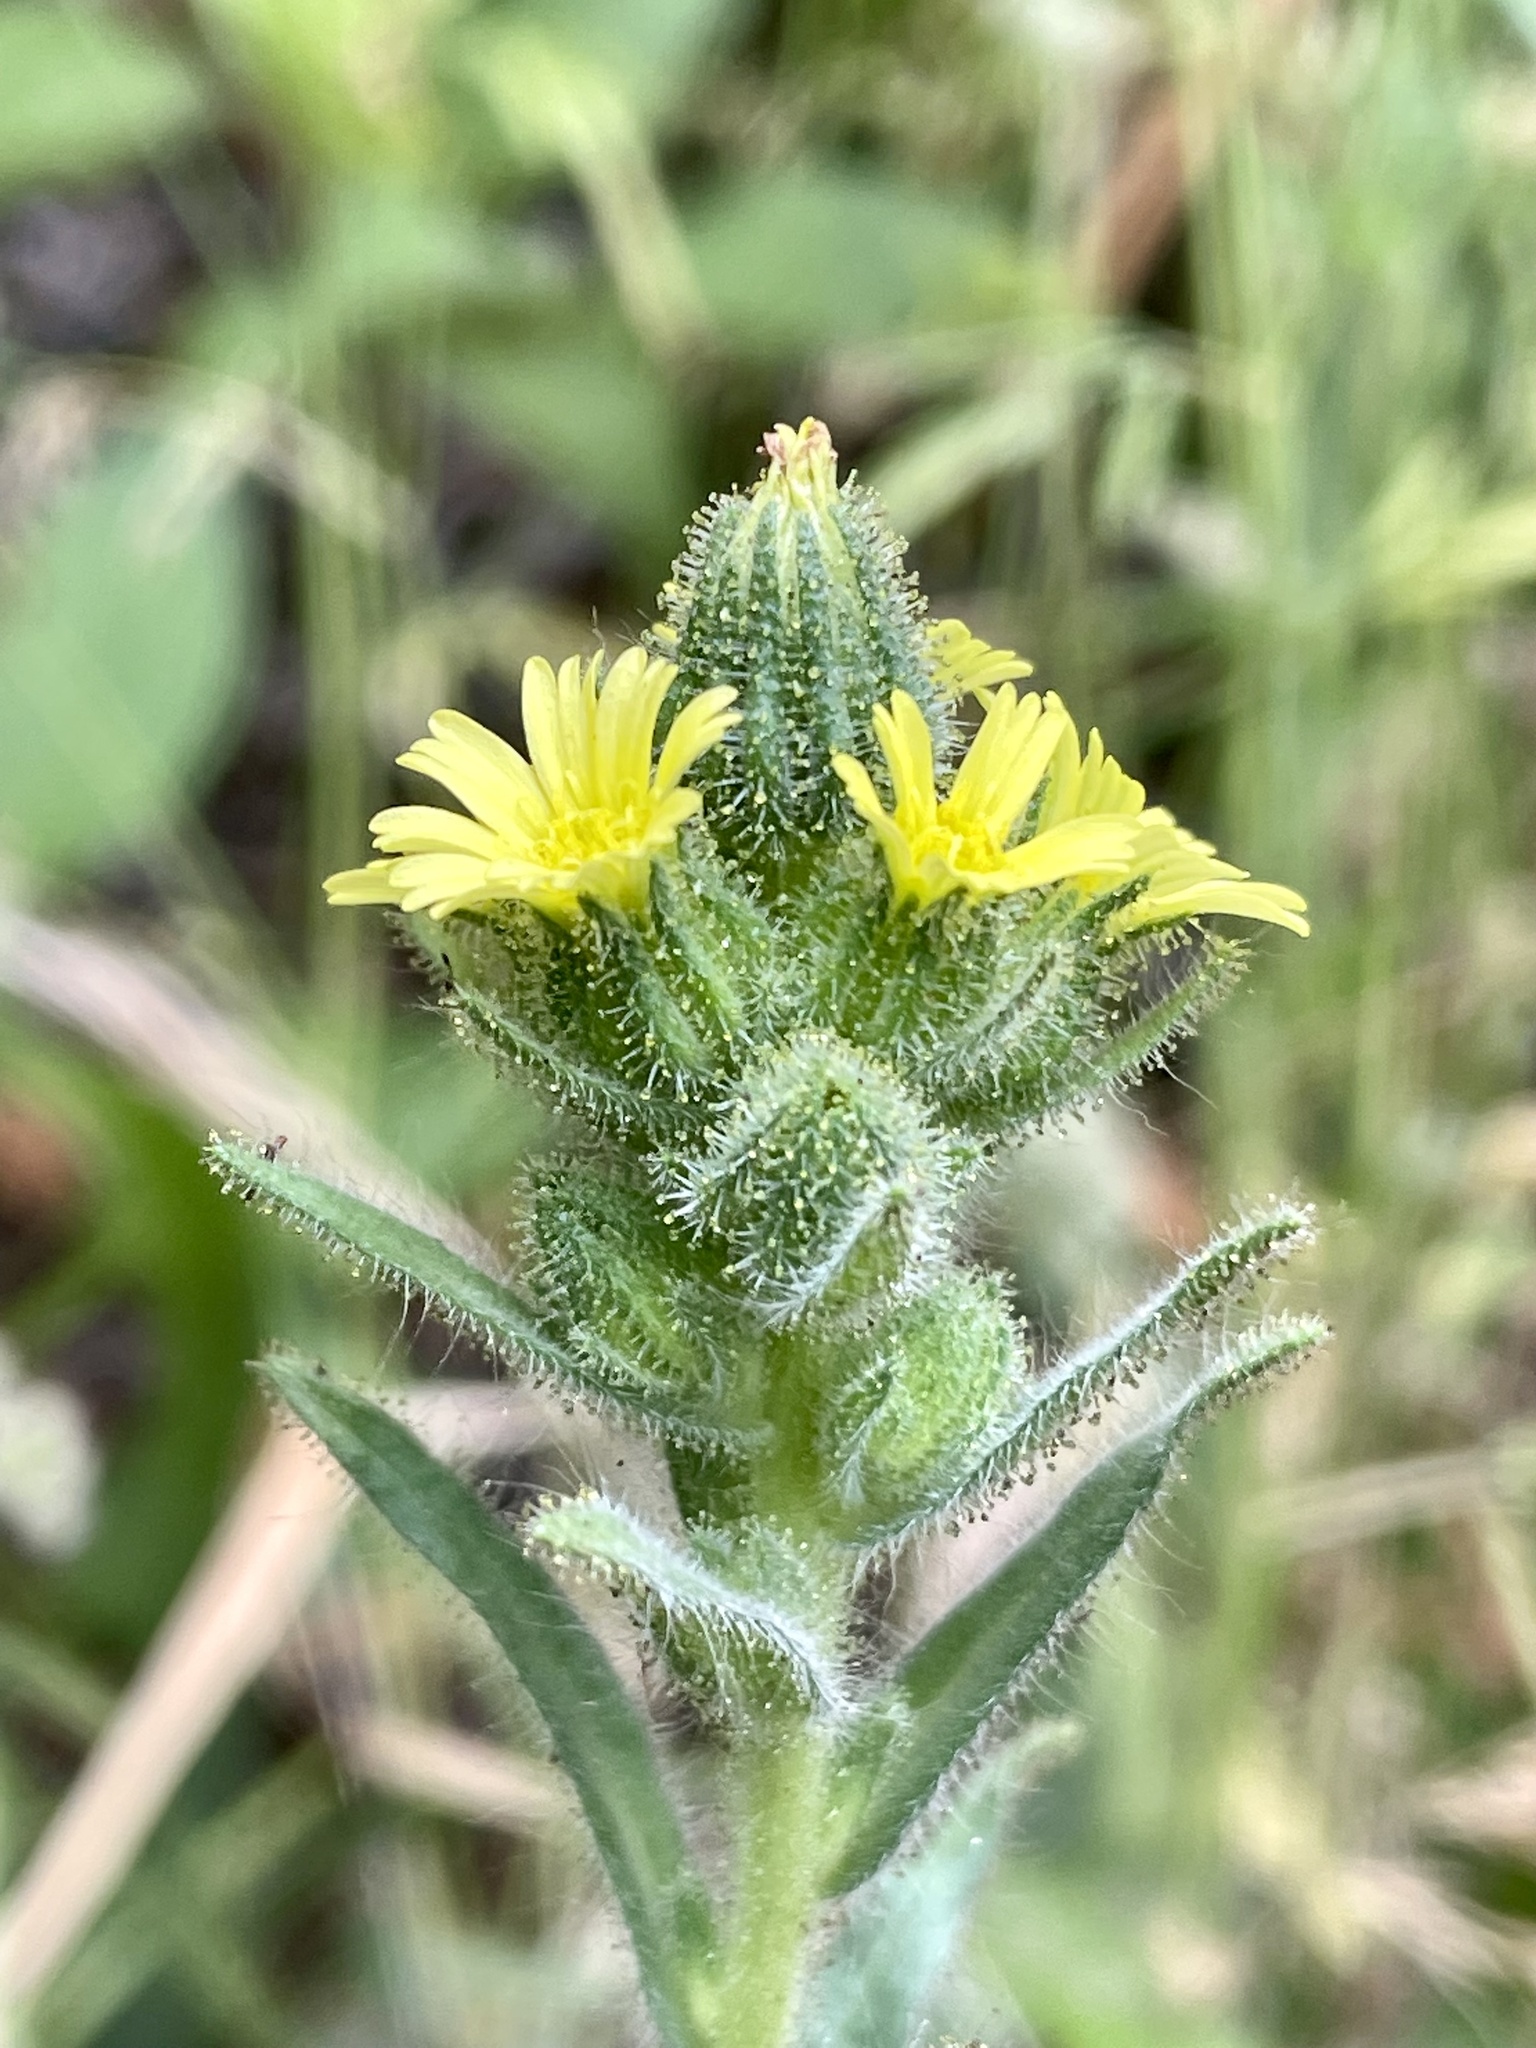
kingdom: Plantae
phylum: Tracheophyta
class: Magnoliopsida
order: Asterales
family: Asteraceae
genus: Madia
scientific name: Madia sativa
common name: Coast tarweed
